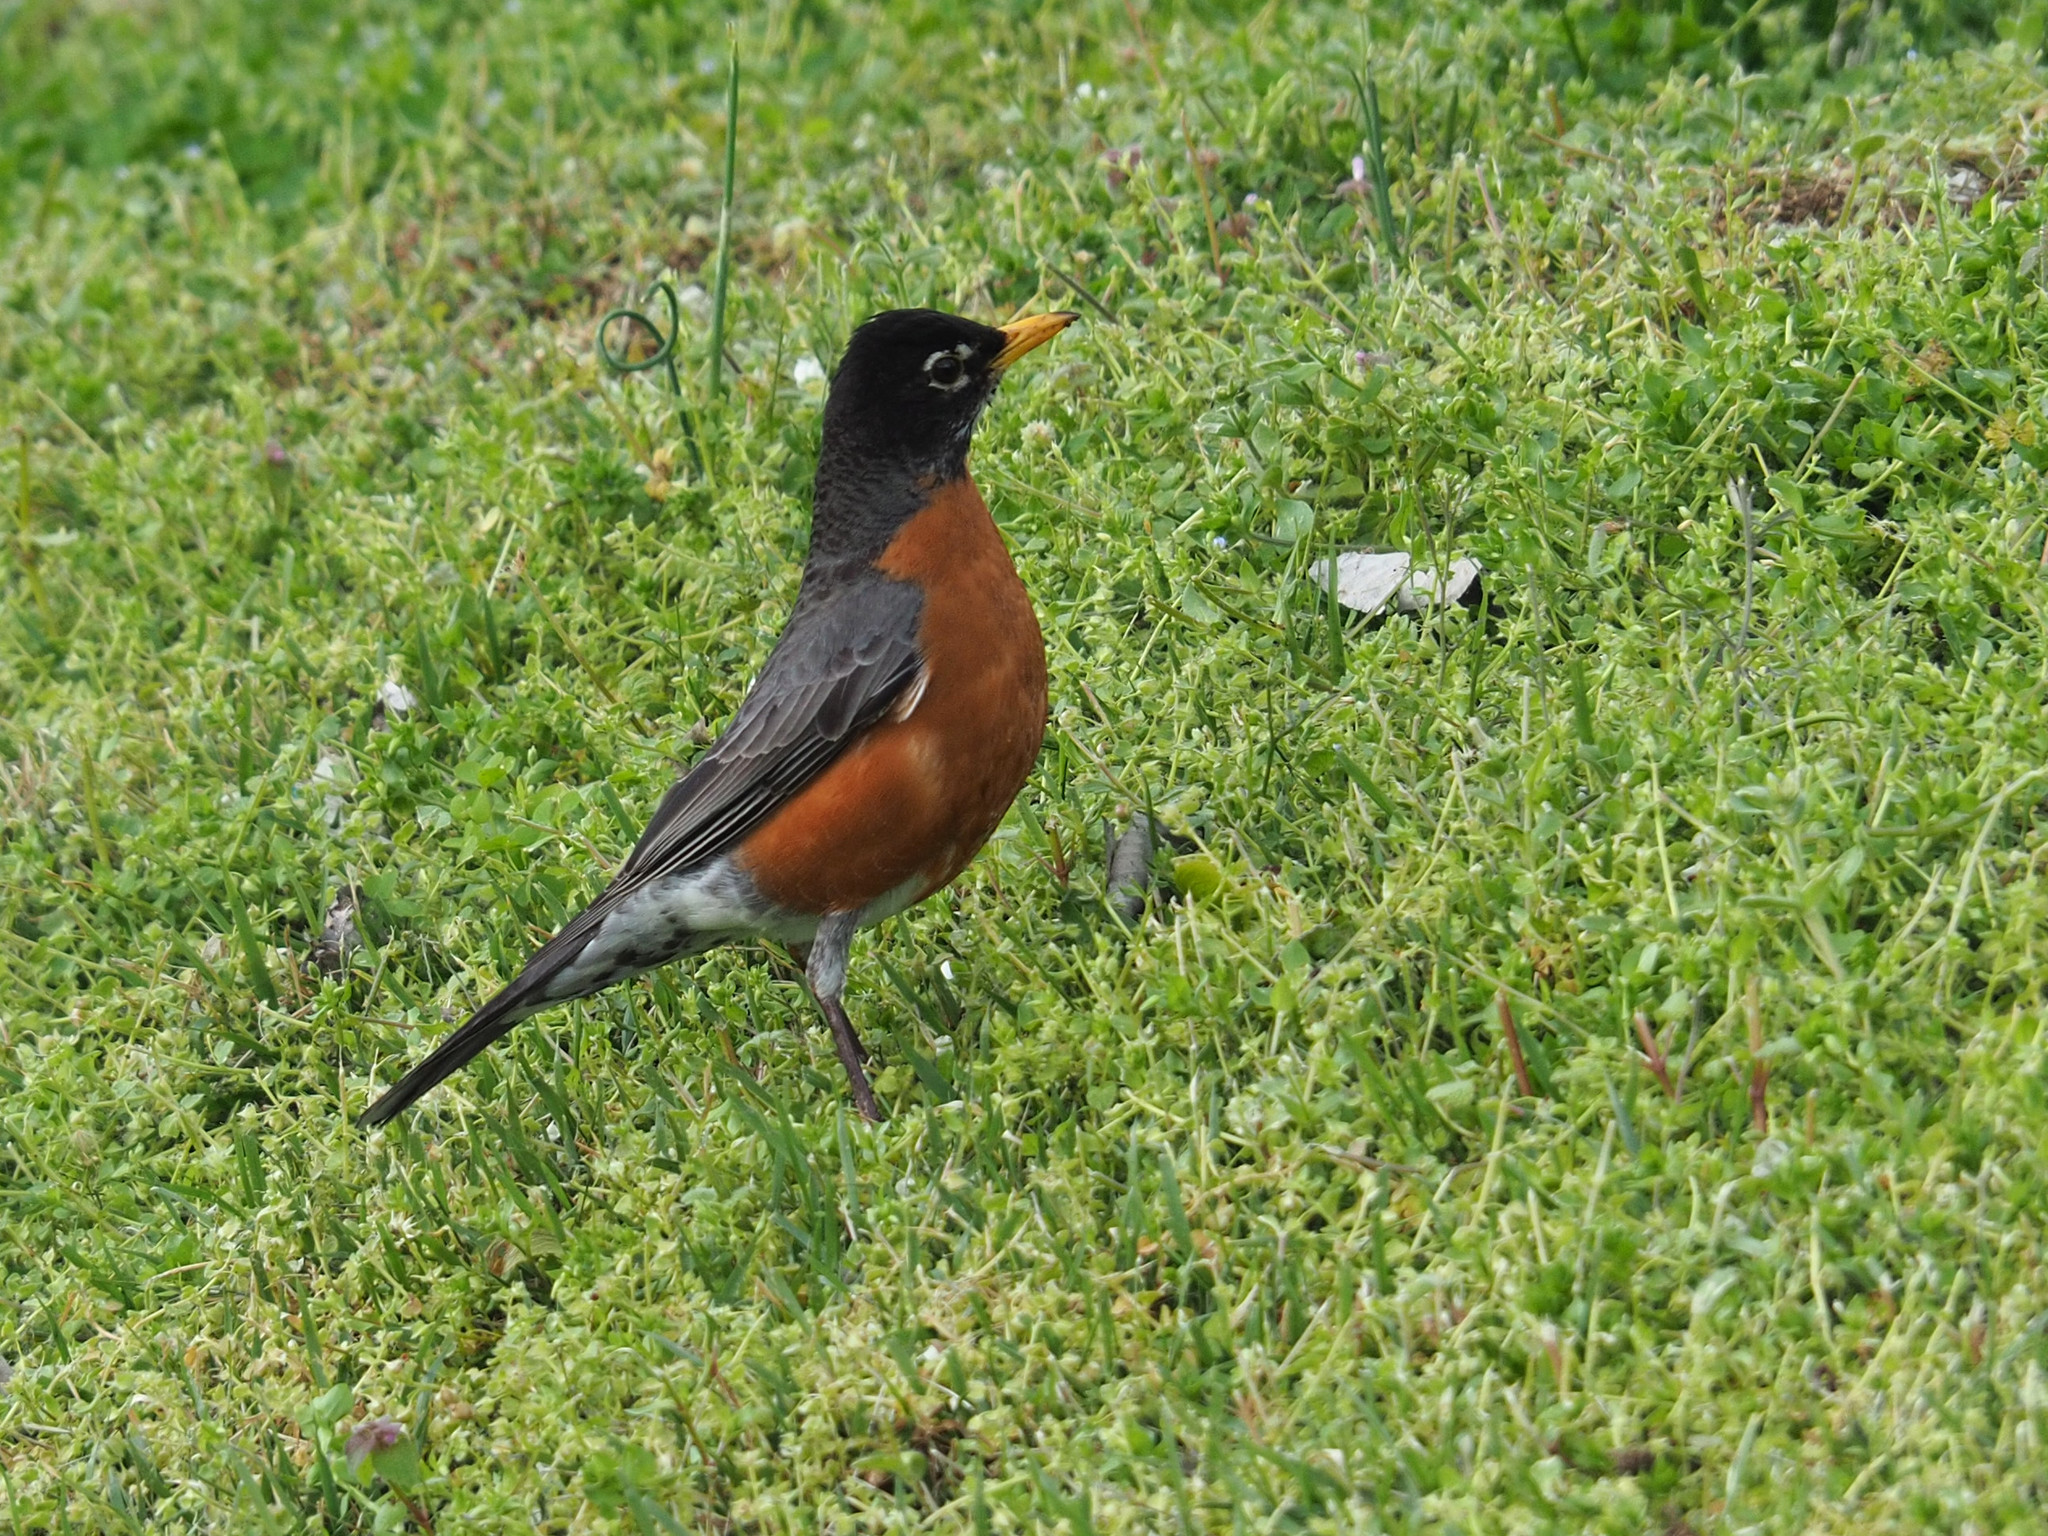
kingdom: Animalia
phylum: Chordata
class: Aves
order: Passeriformes
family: Turdidae
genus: Turdus
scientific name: Turdus migratorius
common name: American robin
